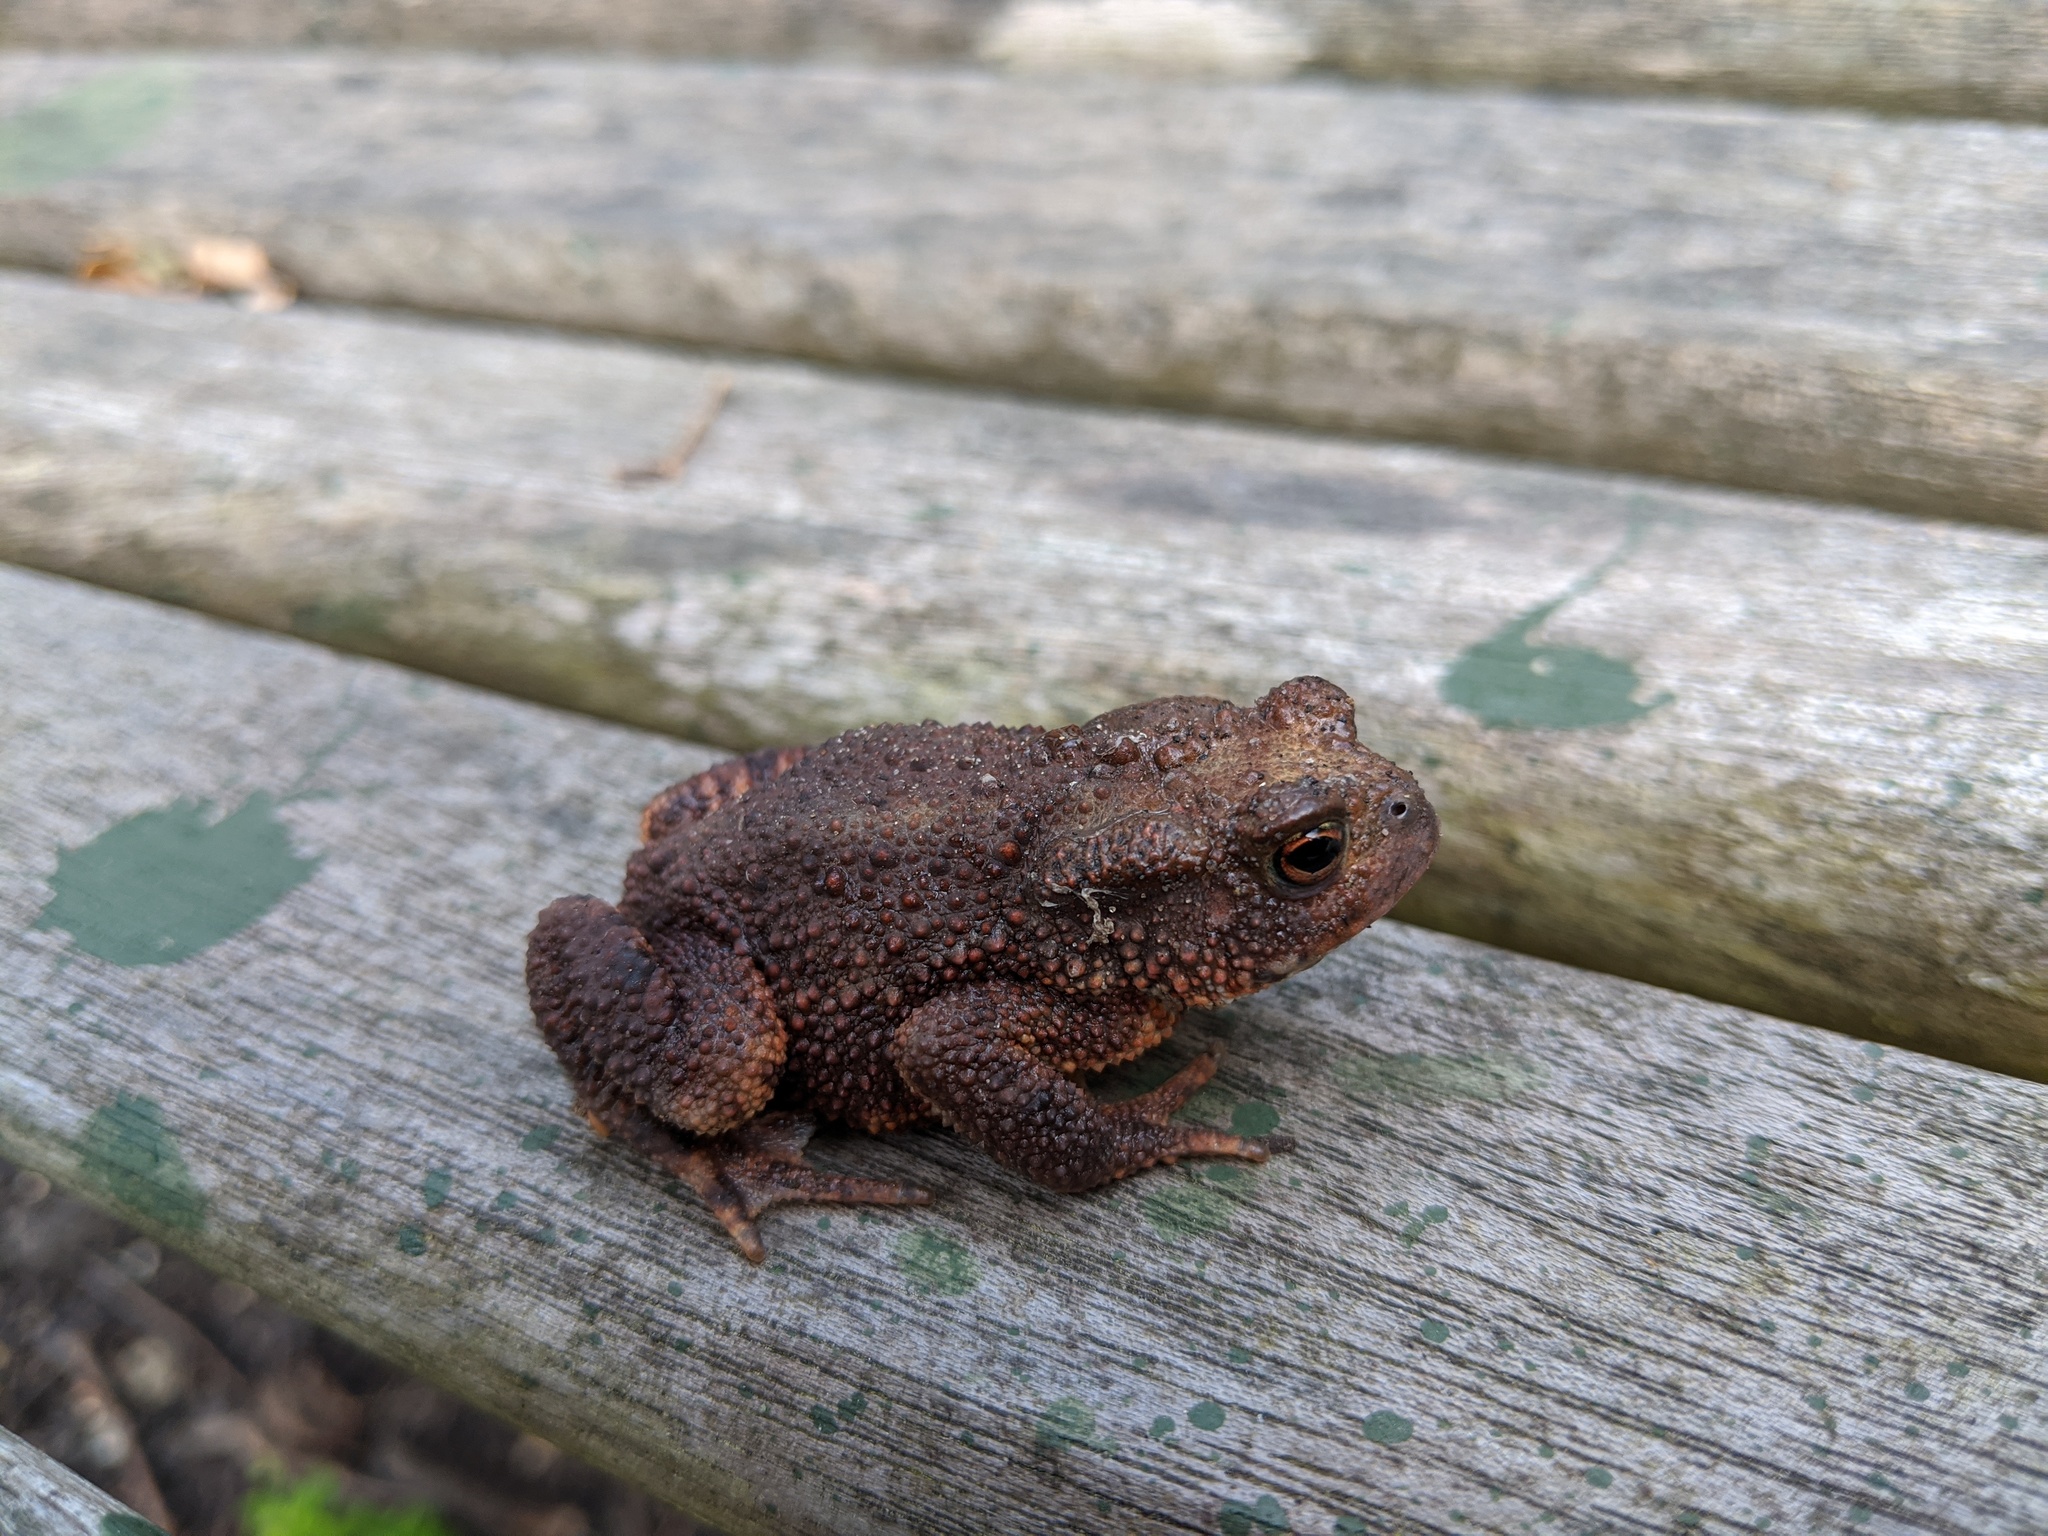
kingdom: Animalia
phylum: Chordata
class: Amphibia
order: Anura
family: Bufonidae
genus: Bufo
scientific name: Bufo bufo
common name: Common toad
